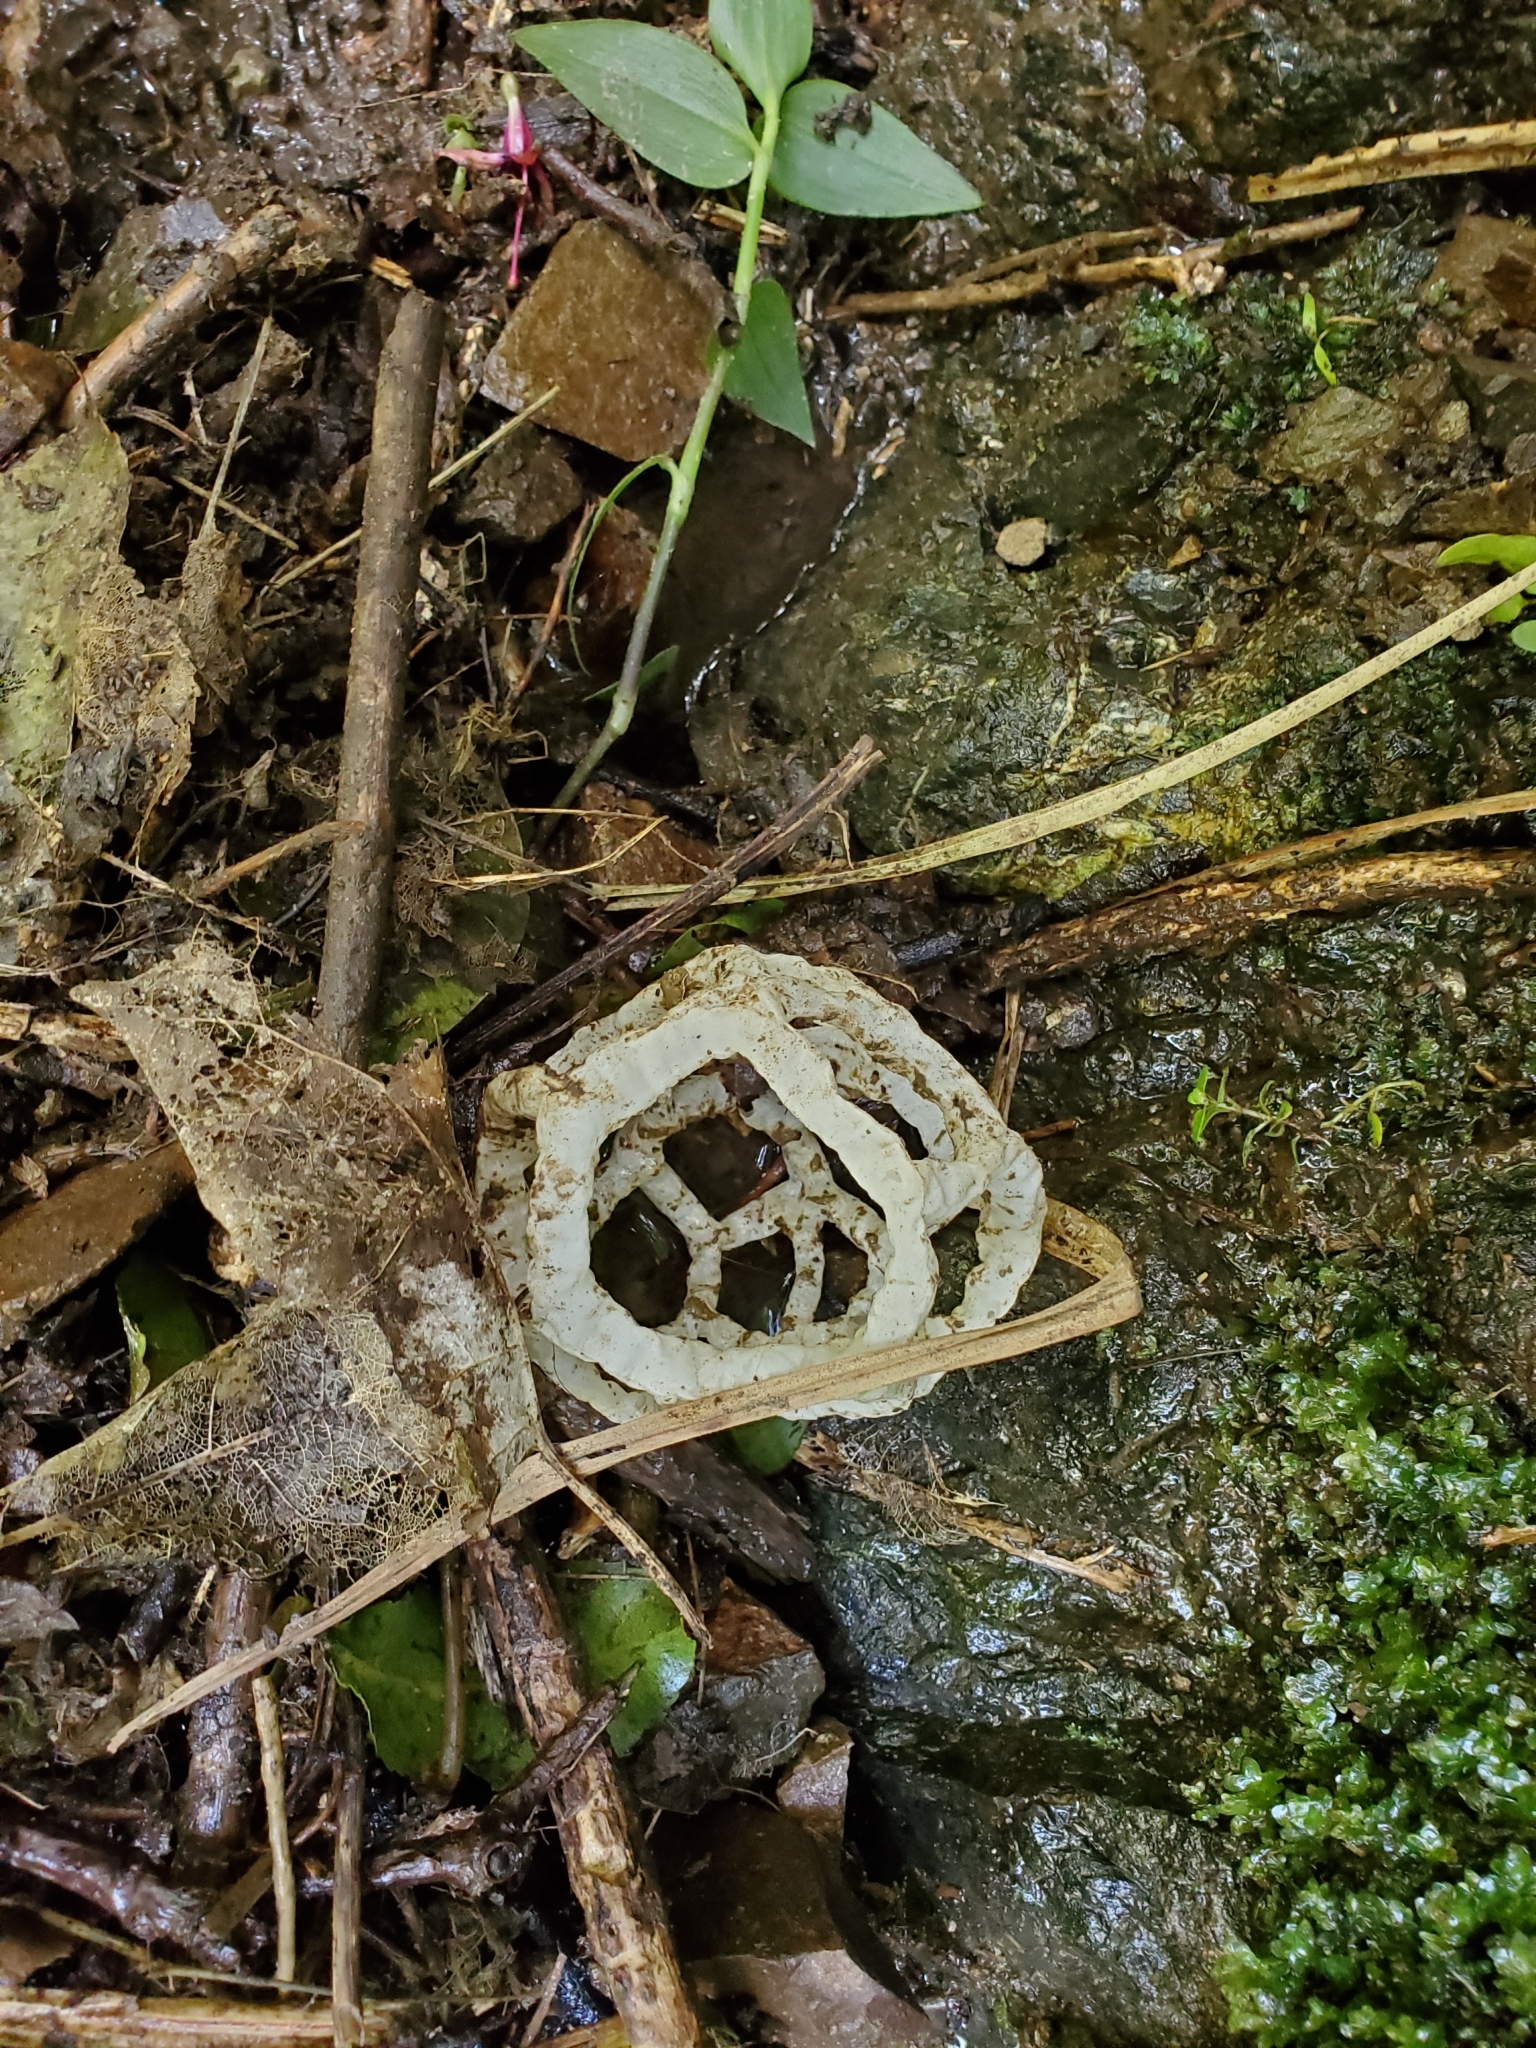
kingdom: Fungi
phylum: Basidiomycota
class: Agaricomycetes
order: Phallales
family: Phallaceae
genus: Ileodictyon
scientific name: Ileodictyon cibarium
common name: Basket fungus
